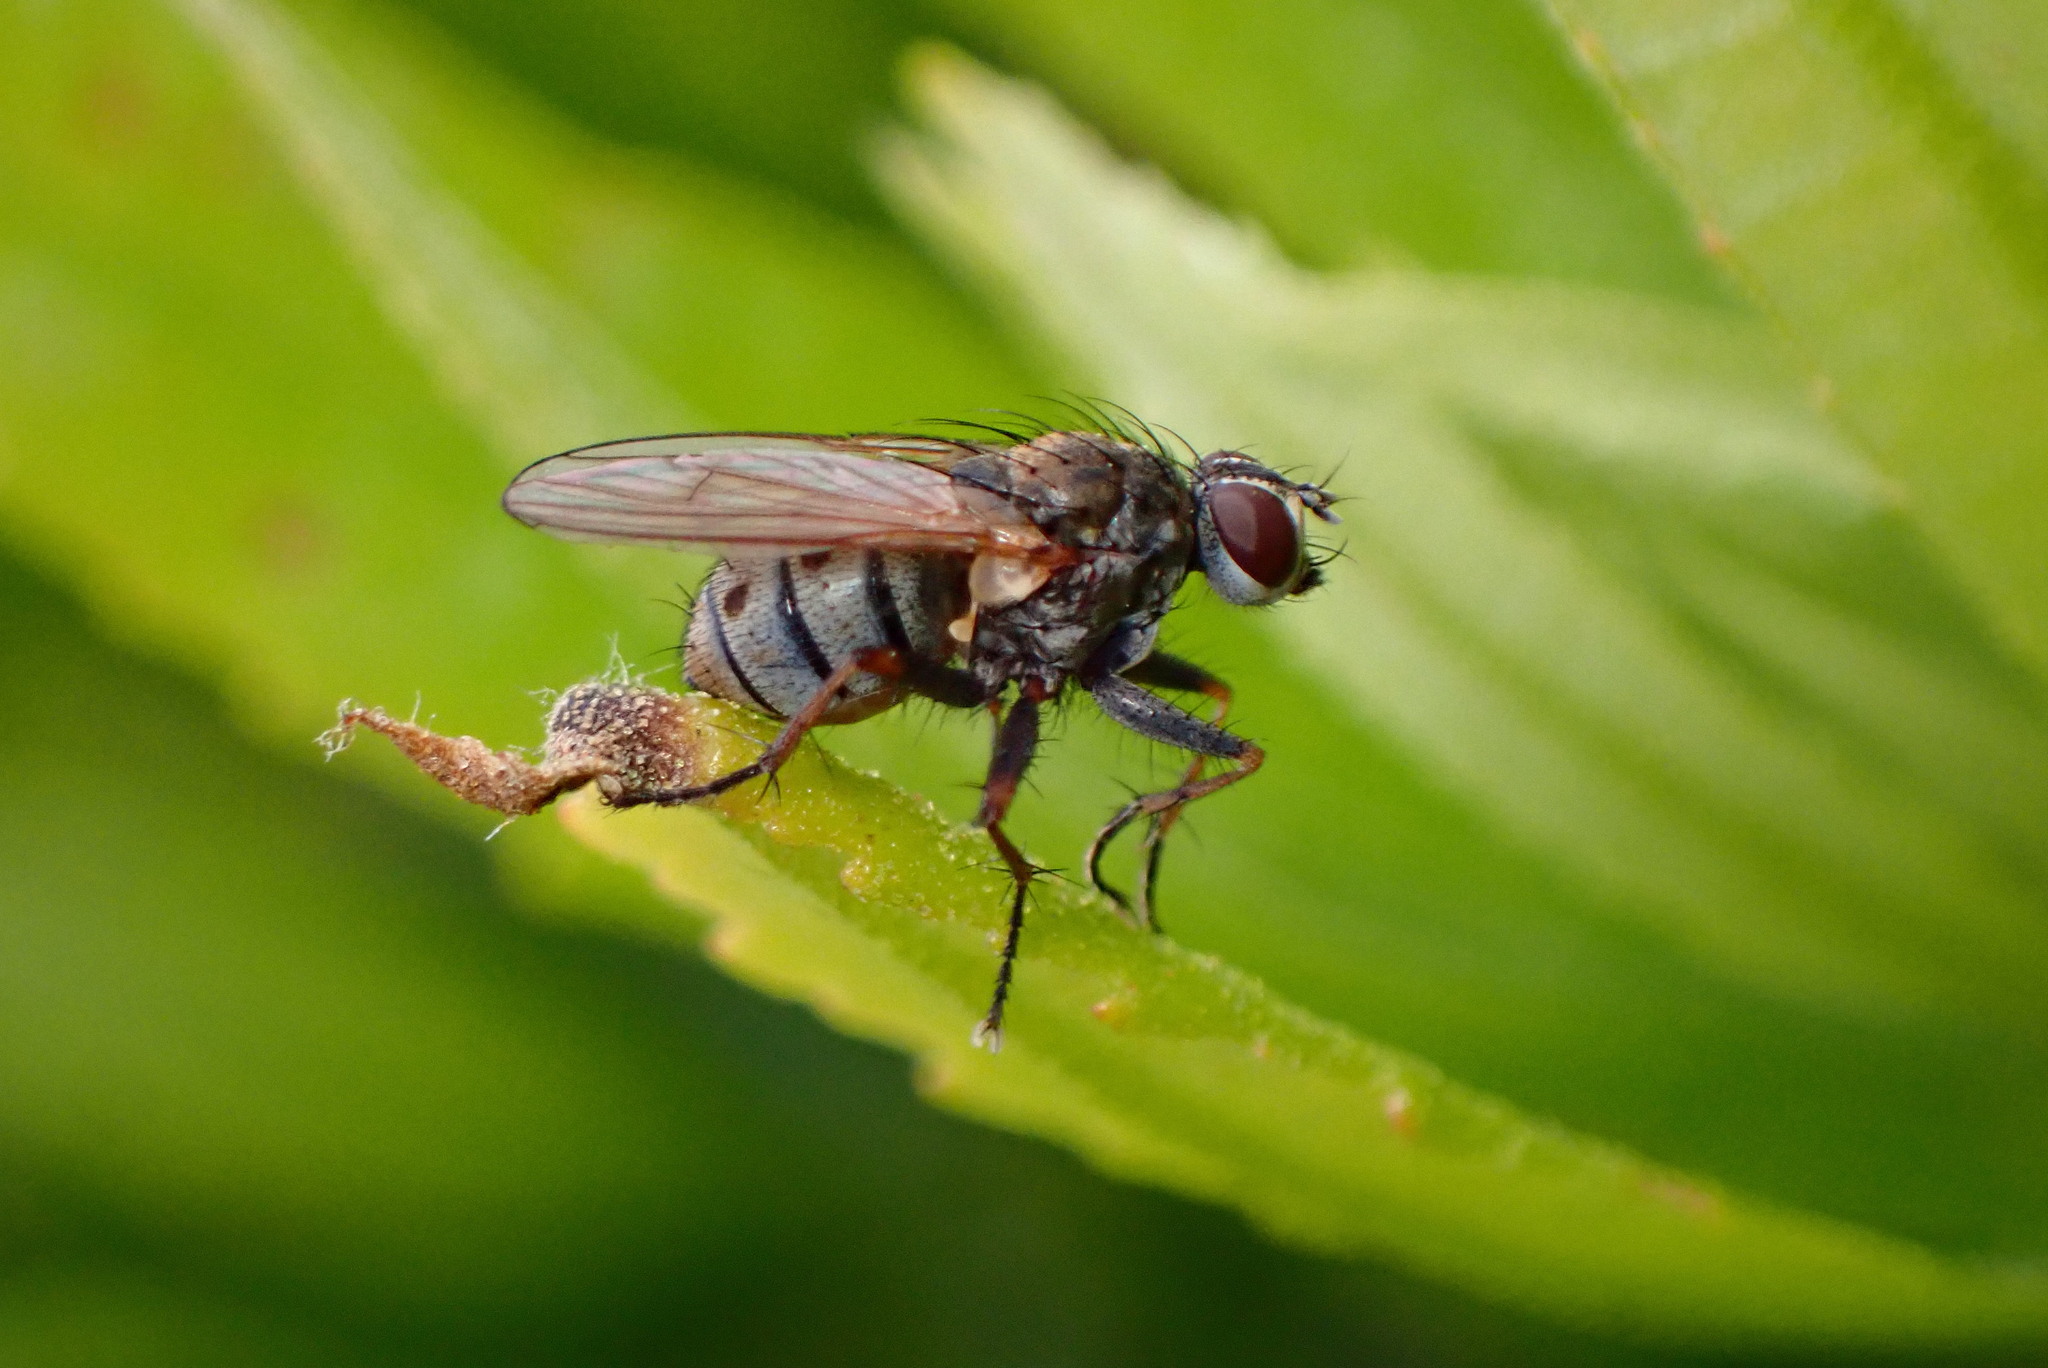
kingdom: Animalia
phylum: Arthropoda
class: Insecta
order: Diptera
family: Muscidae
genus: Coenosia
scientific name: Coenosia tigrina
